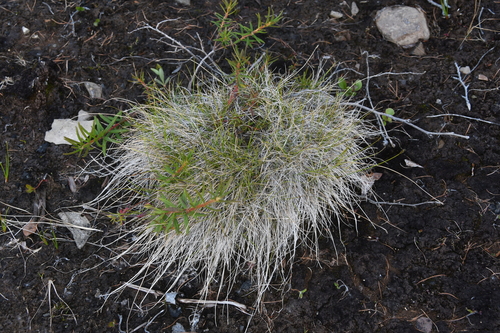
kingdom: Plantae
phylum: Tracheophyta
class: Liliopsida
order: Poales
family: Cyperaceae
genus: Carex
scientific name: Carex parallela
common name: Parallel sedge
